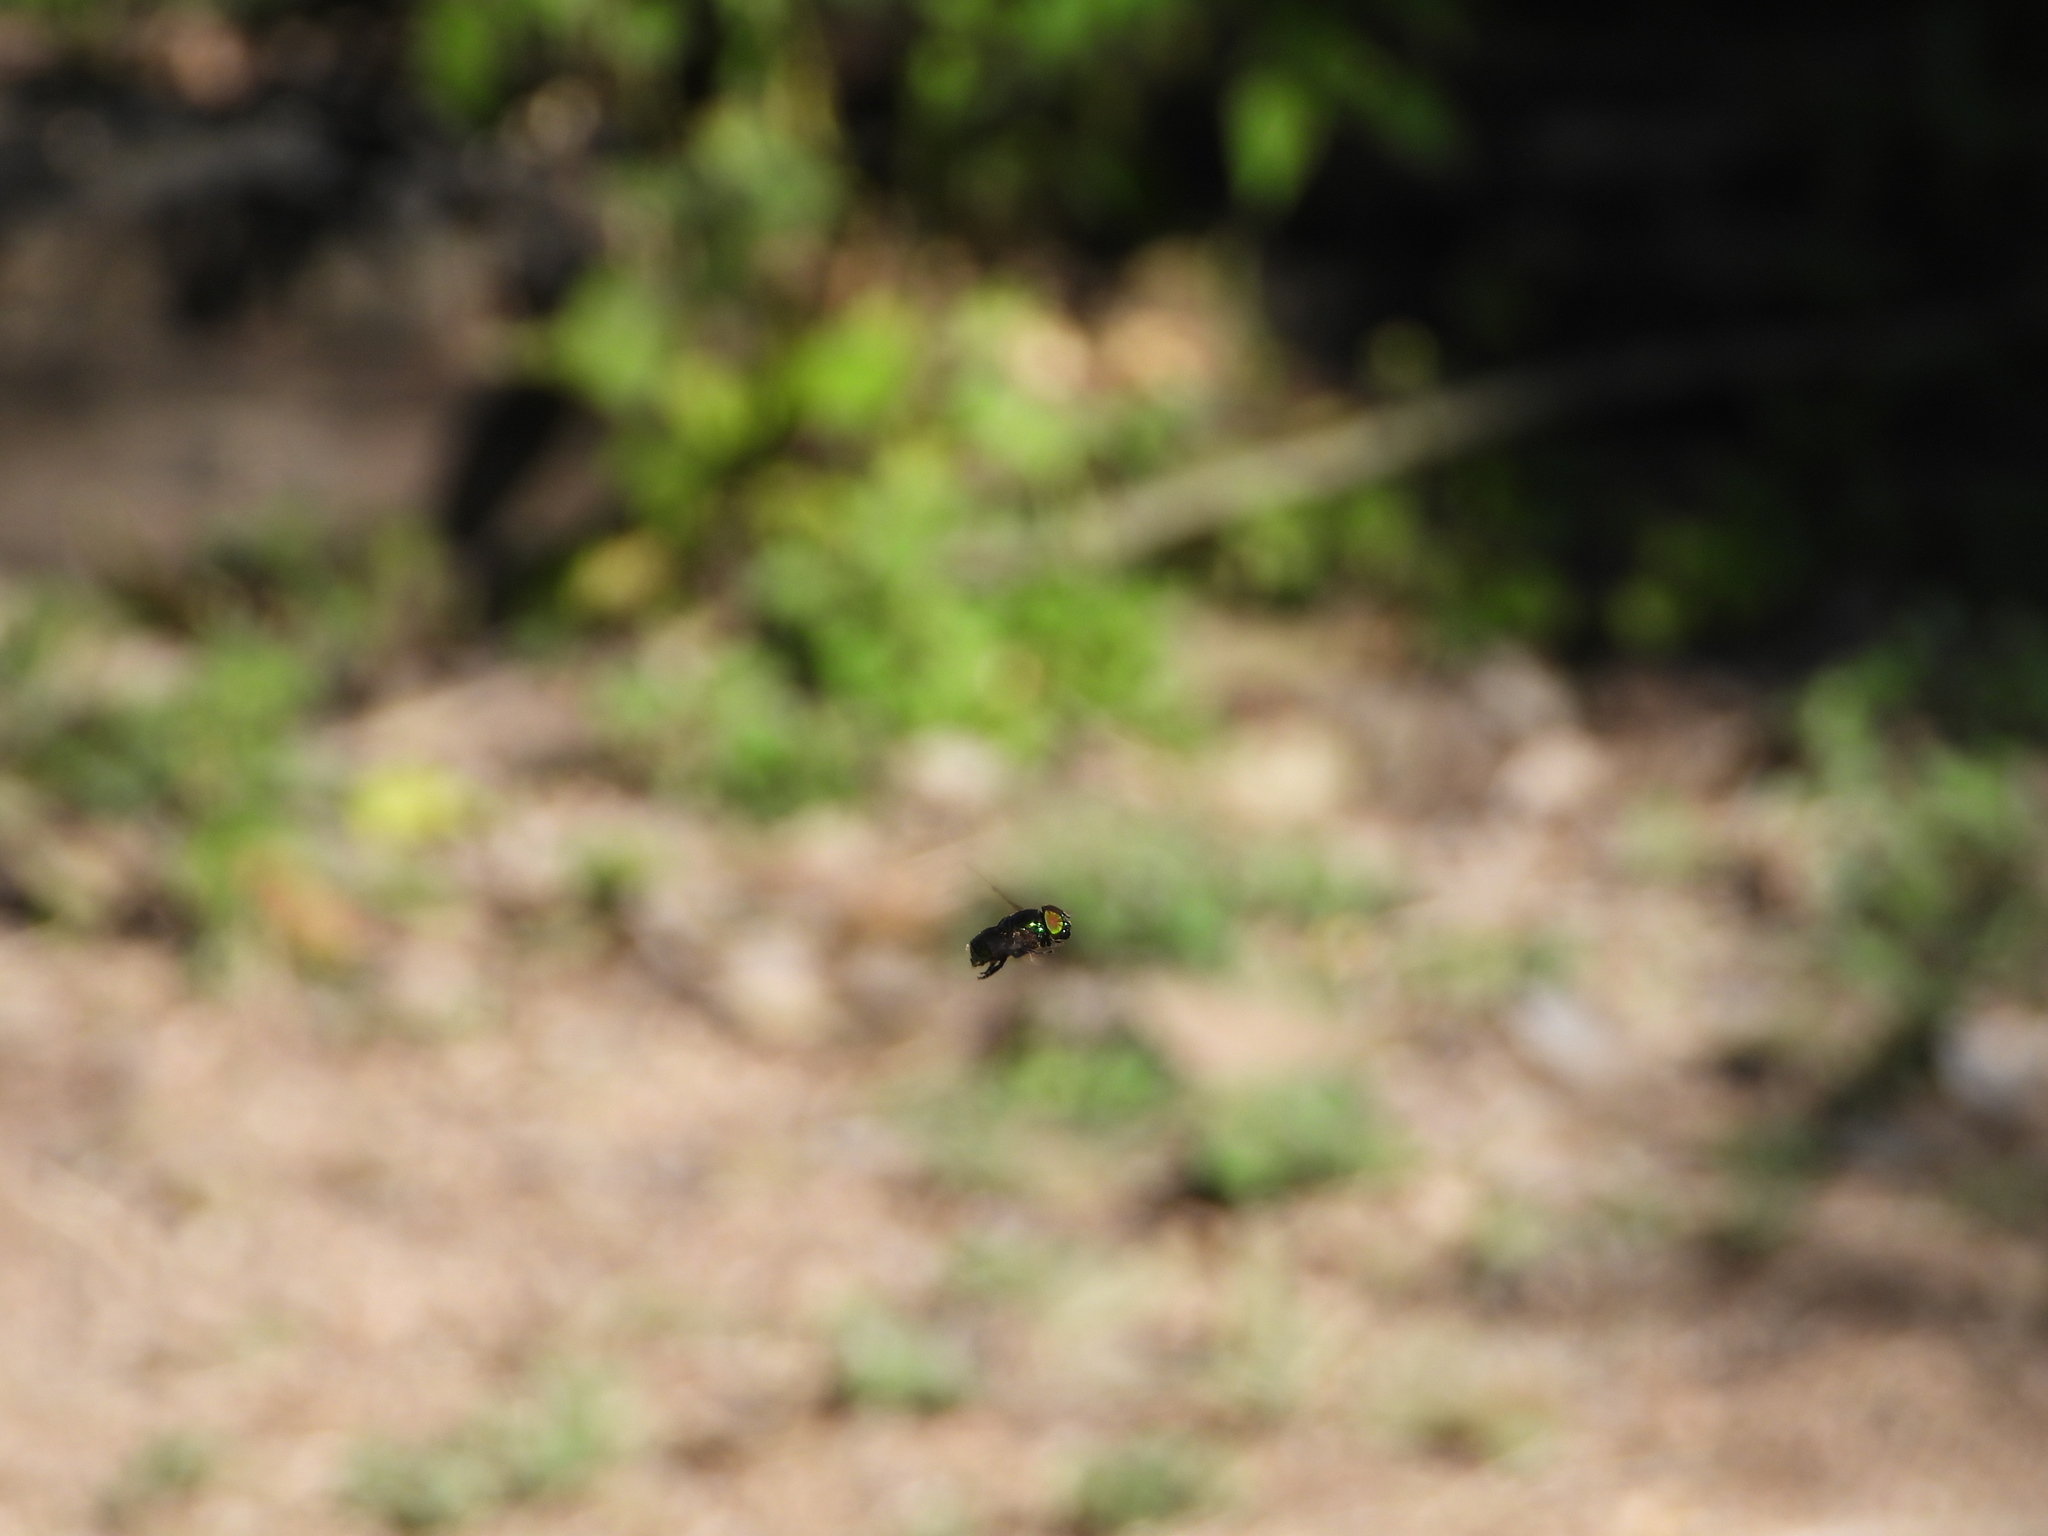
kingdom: Animalia
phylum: Arthropoda
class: Insecta
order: Diptera
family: Syrphidae
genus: Ornidia
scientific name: Ornidia obesa
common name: Syrphid fly
